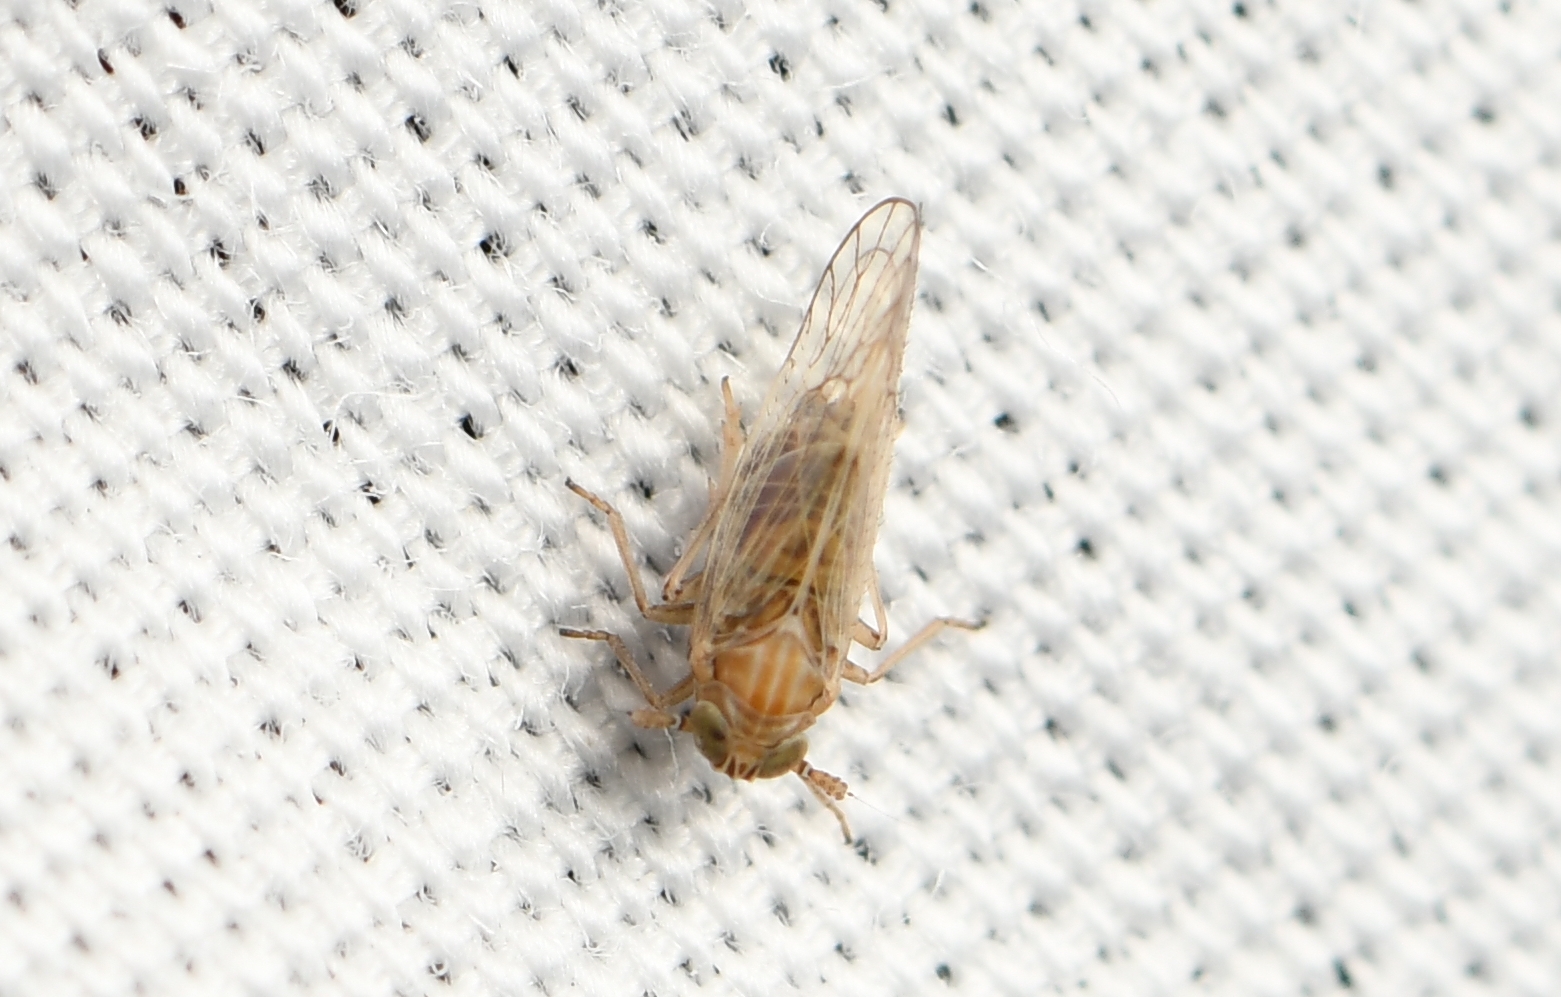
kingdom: Animalia
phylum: Arthropoda
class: Insecta
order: Hemiptera
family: Delphacidae
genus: Metadelphax
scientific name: Metadelphax propinquus
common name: Plant hopper
